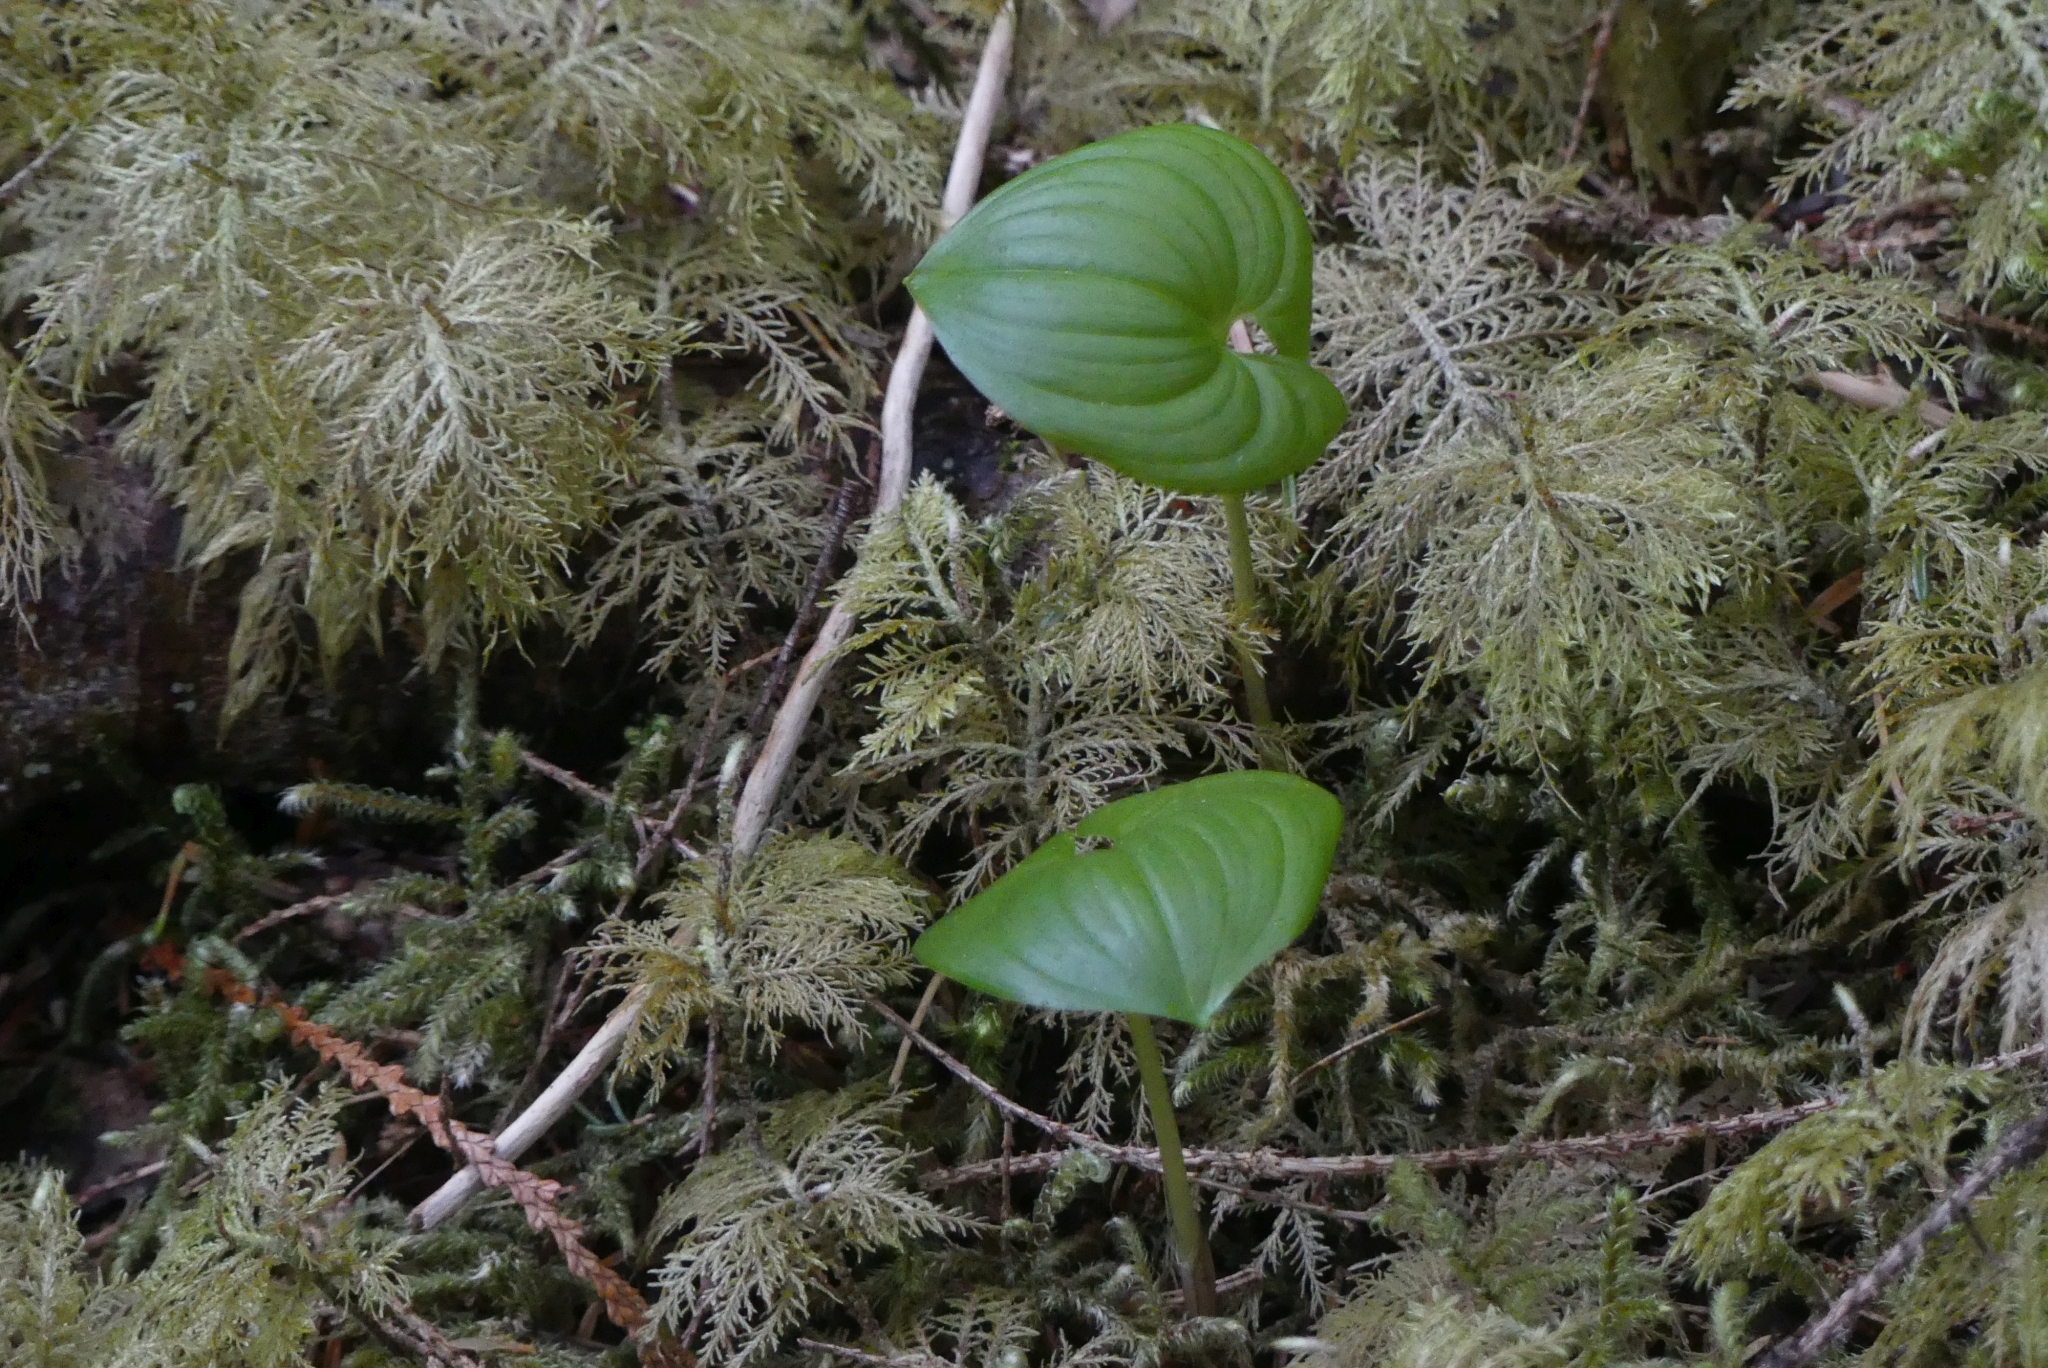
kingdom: Plantae
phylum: Bryophyta
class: Bryopsida
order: Hypnales
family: Hylocomiaceae
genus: Hylocomium
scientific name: Hylocomium splendens
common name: Stairstep moss
